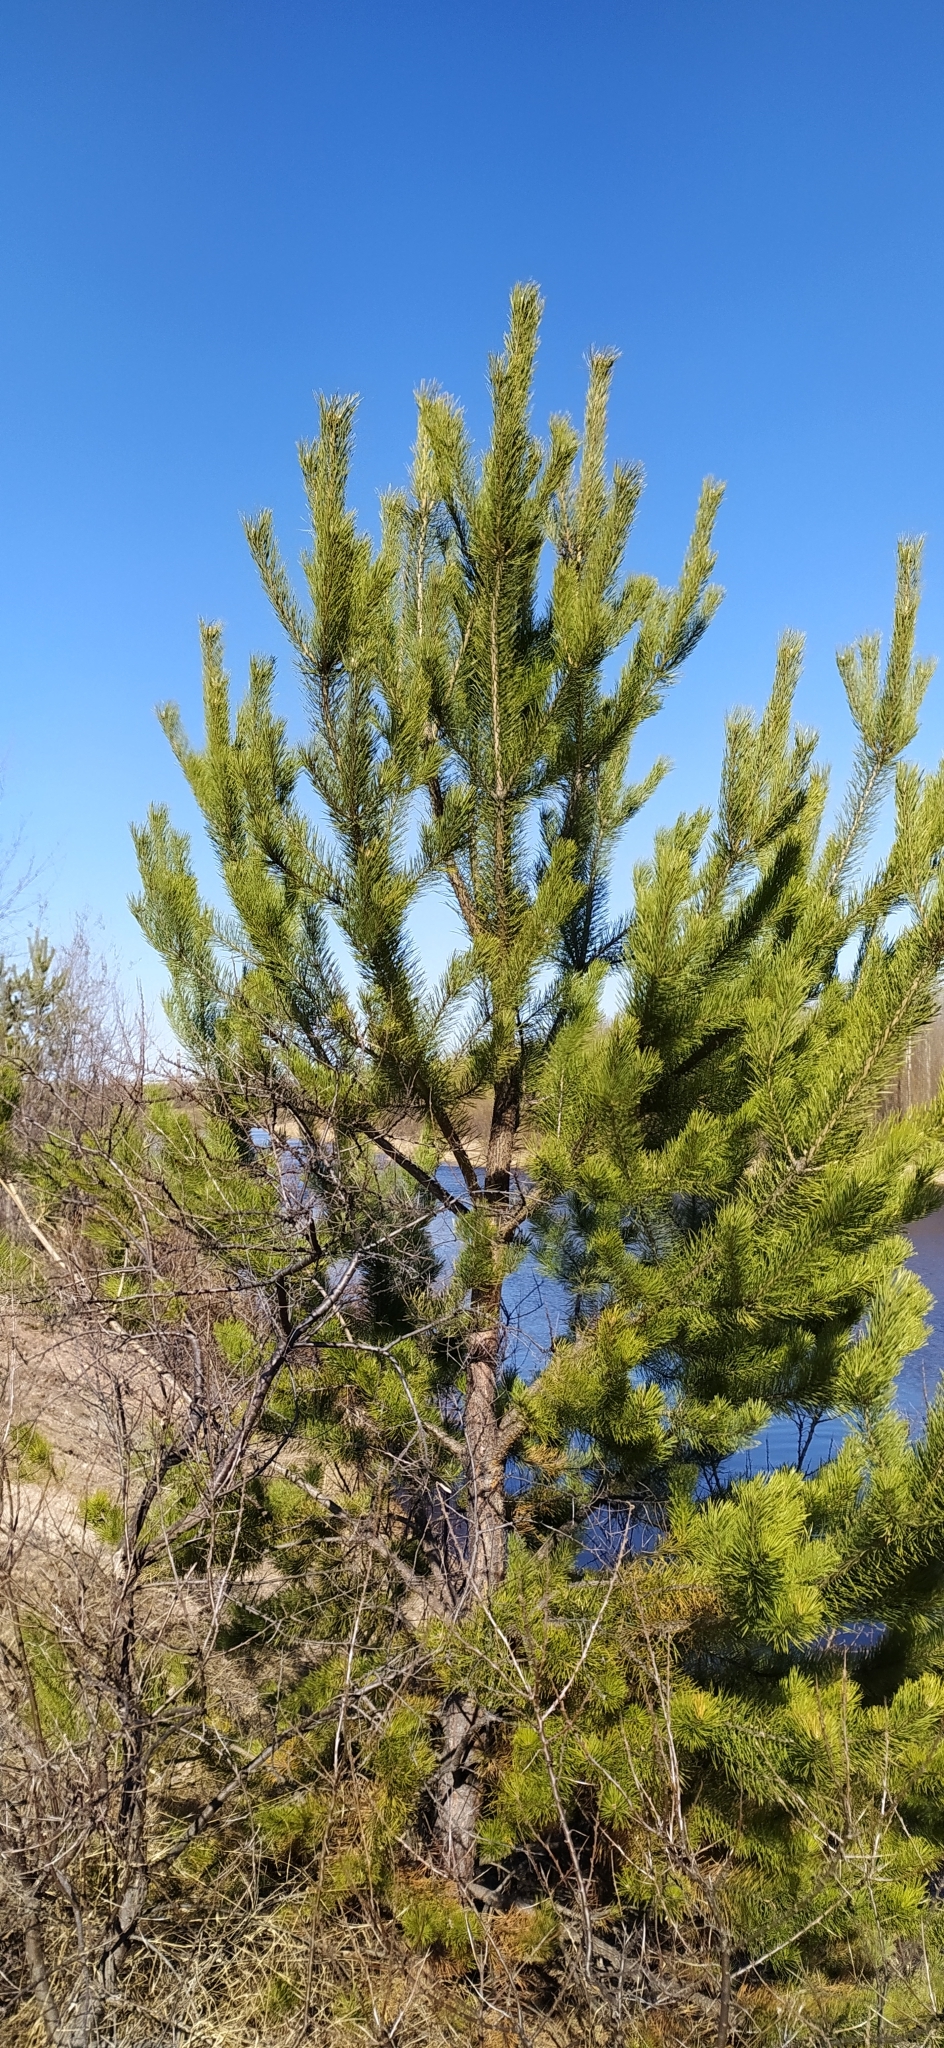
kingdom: Plantae
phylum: Tracheophyta
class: Pinopsida
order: Pinales
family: Pinaceae
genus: Pinus
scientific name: Pinus sylvestris
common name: Scots pine
